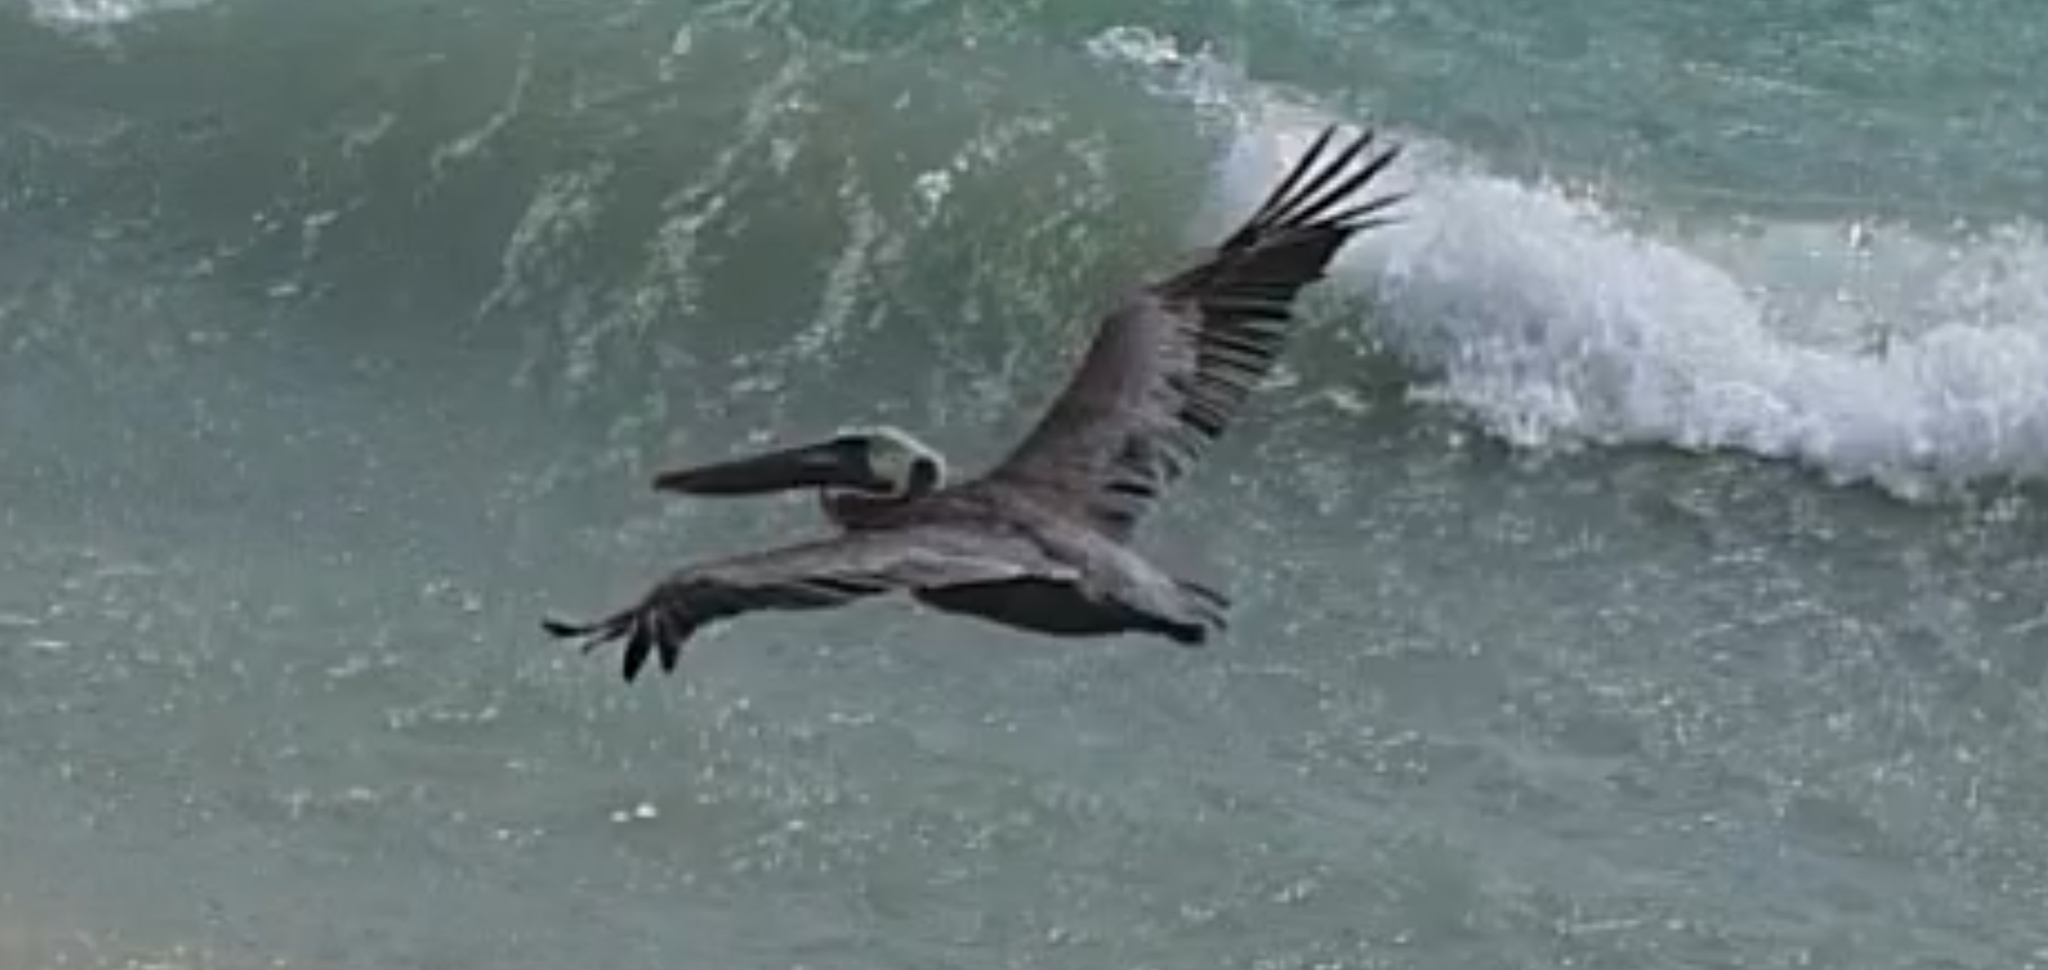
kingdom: Animalia
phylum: Chordata
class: Aves
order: Pelecaniformes
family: Pelecanidae
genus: Pelecanus
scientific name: Pelecanus occidentalis
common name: Brown pelican
